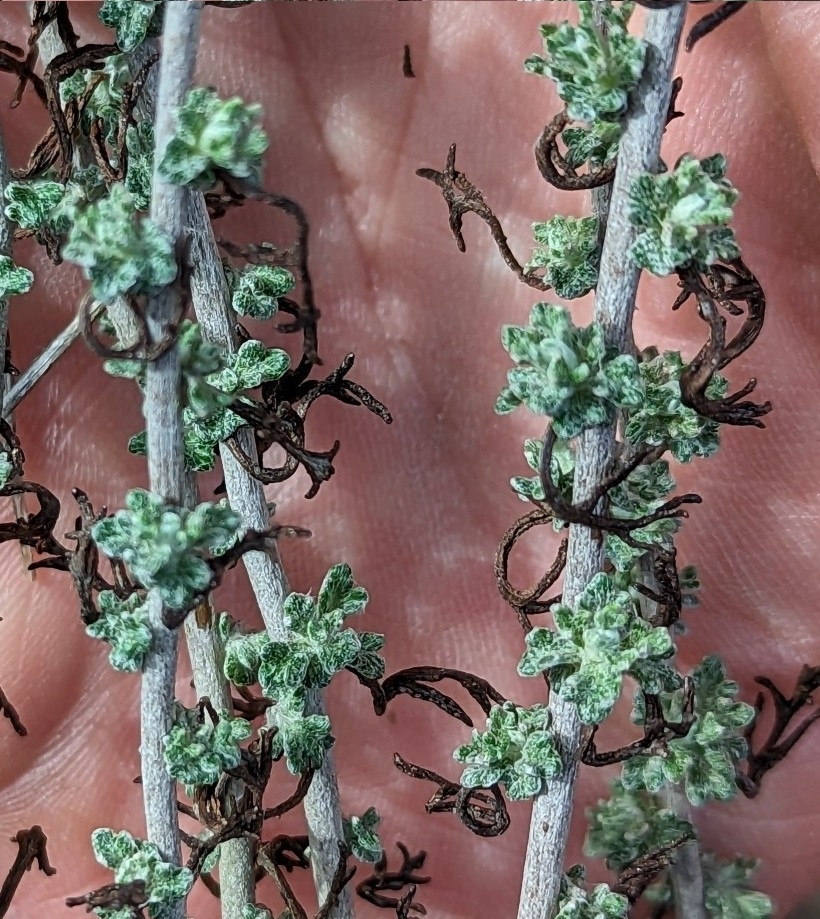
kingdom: Plantae
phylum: Tracheophyta
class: Magnoliopsida
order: Asterales
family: Asteraceae
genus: Eriophyllum
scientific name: Eriophyllum confertiflorum
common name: Golden-yarrow
